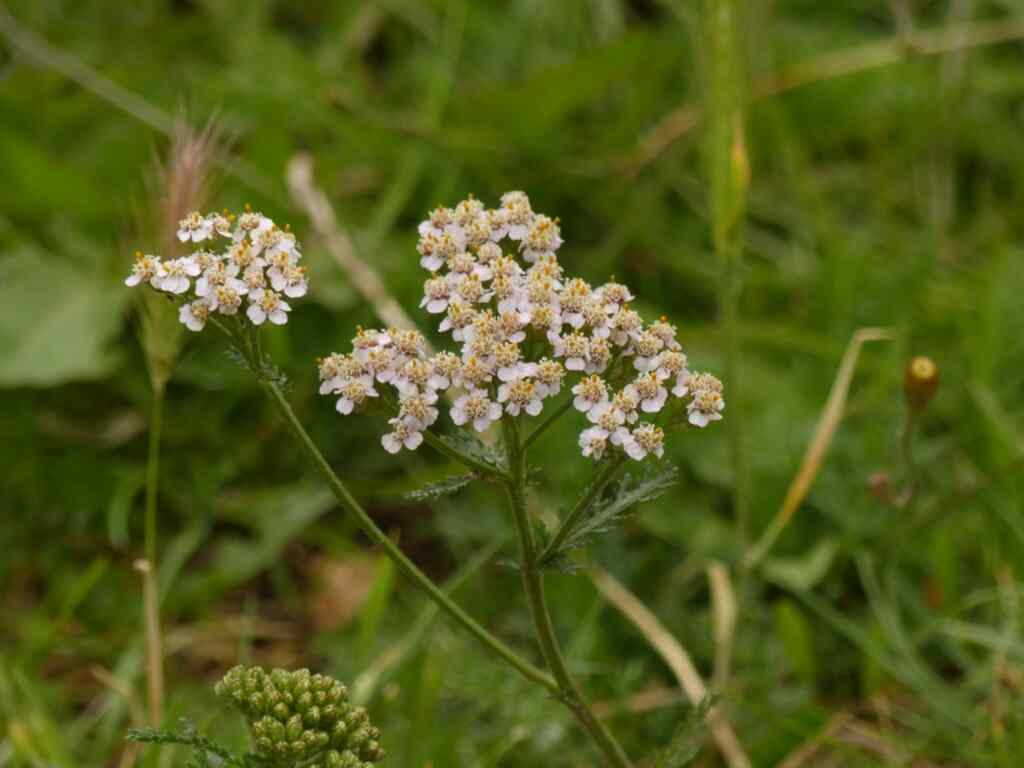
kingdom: Plantae
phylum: Tracheophyta
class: Magnoliopsida
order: Asterales
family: Asteraceae
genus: Achillea
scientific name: Achillea millefolium
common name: Yarrow
